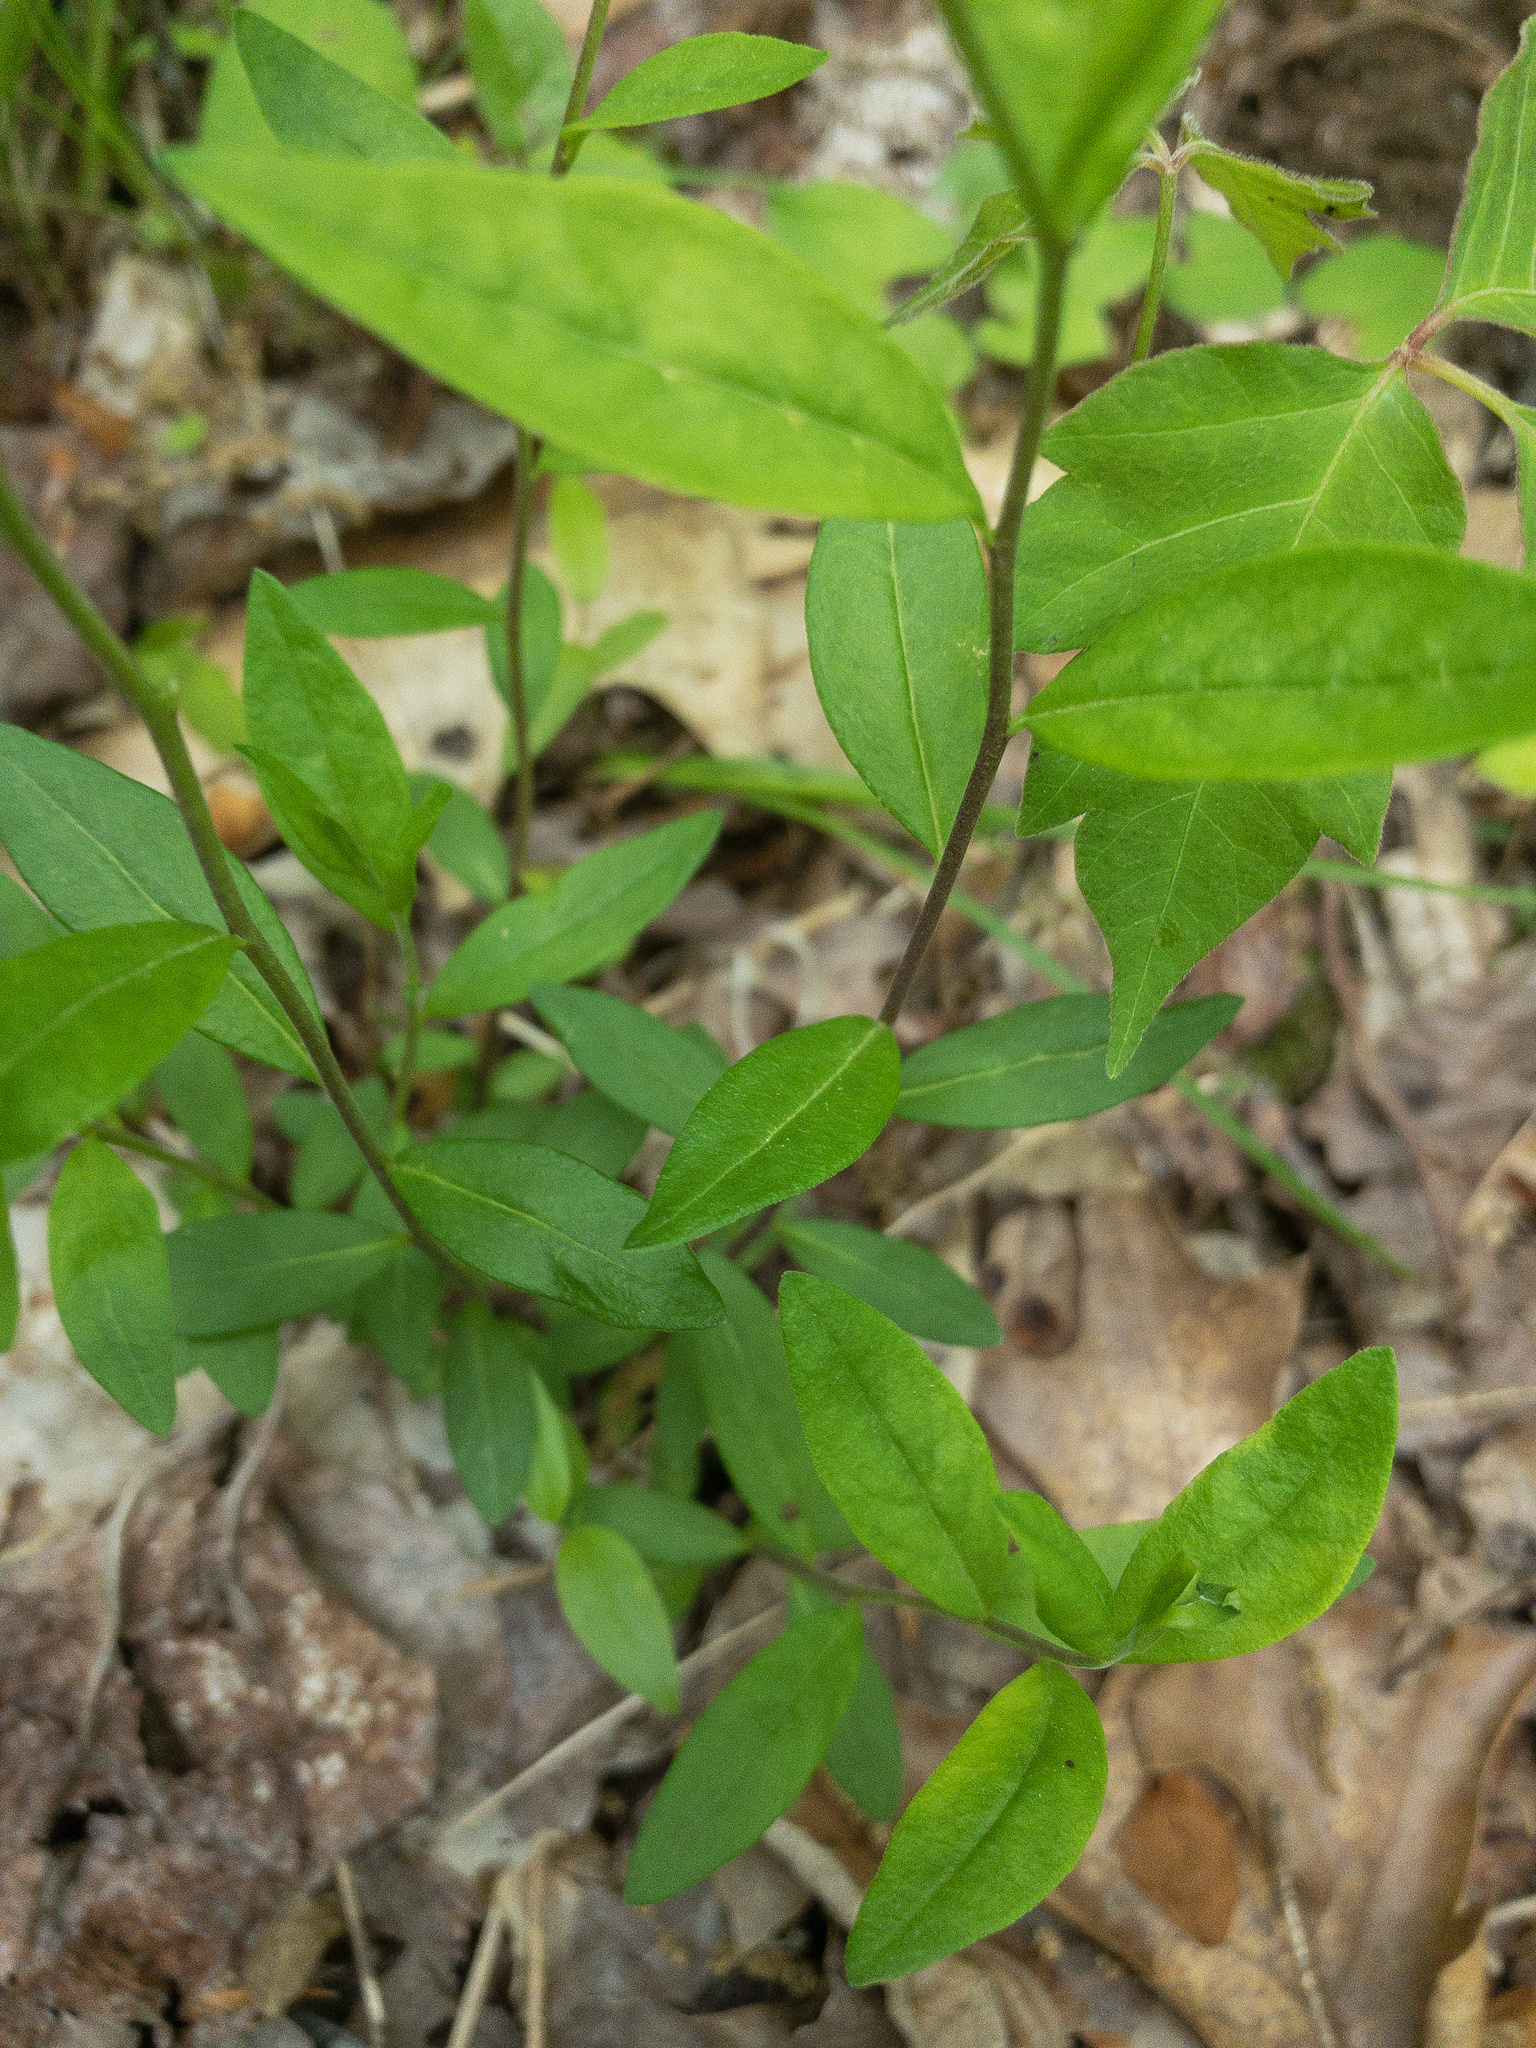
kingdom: Plantae
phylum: Tracheophyta
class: Magnoliopsida
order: Fabales
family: Polygalaceae
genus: Polygala
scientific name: Polygala senega
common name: Seneca snakeroot
